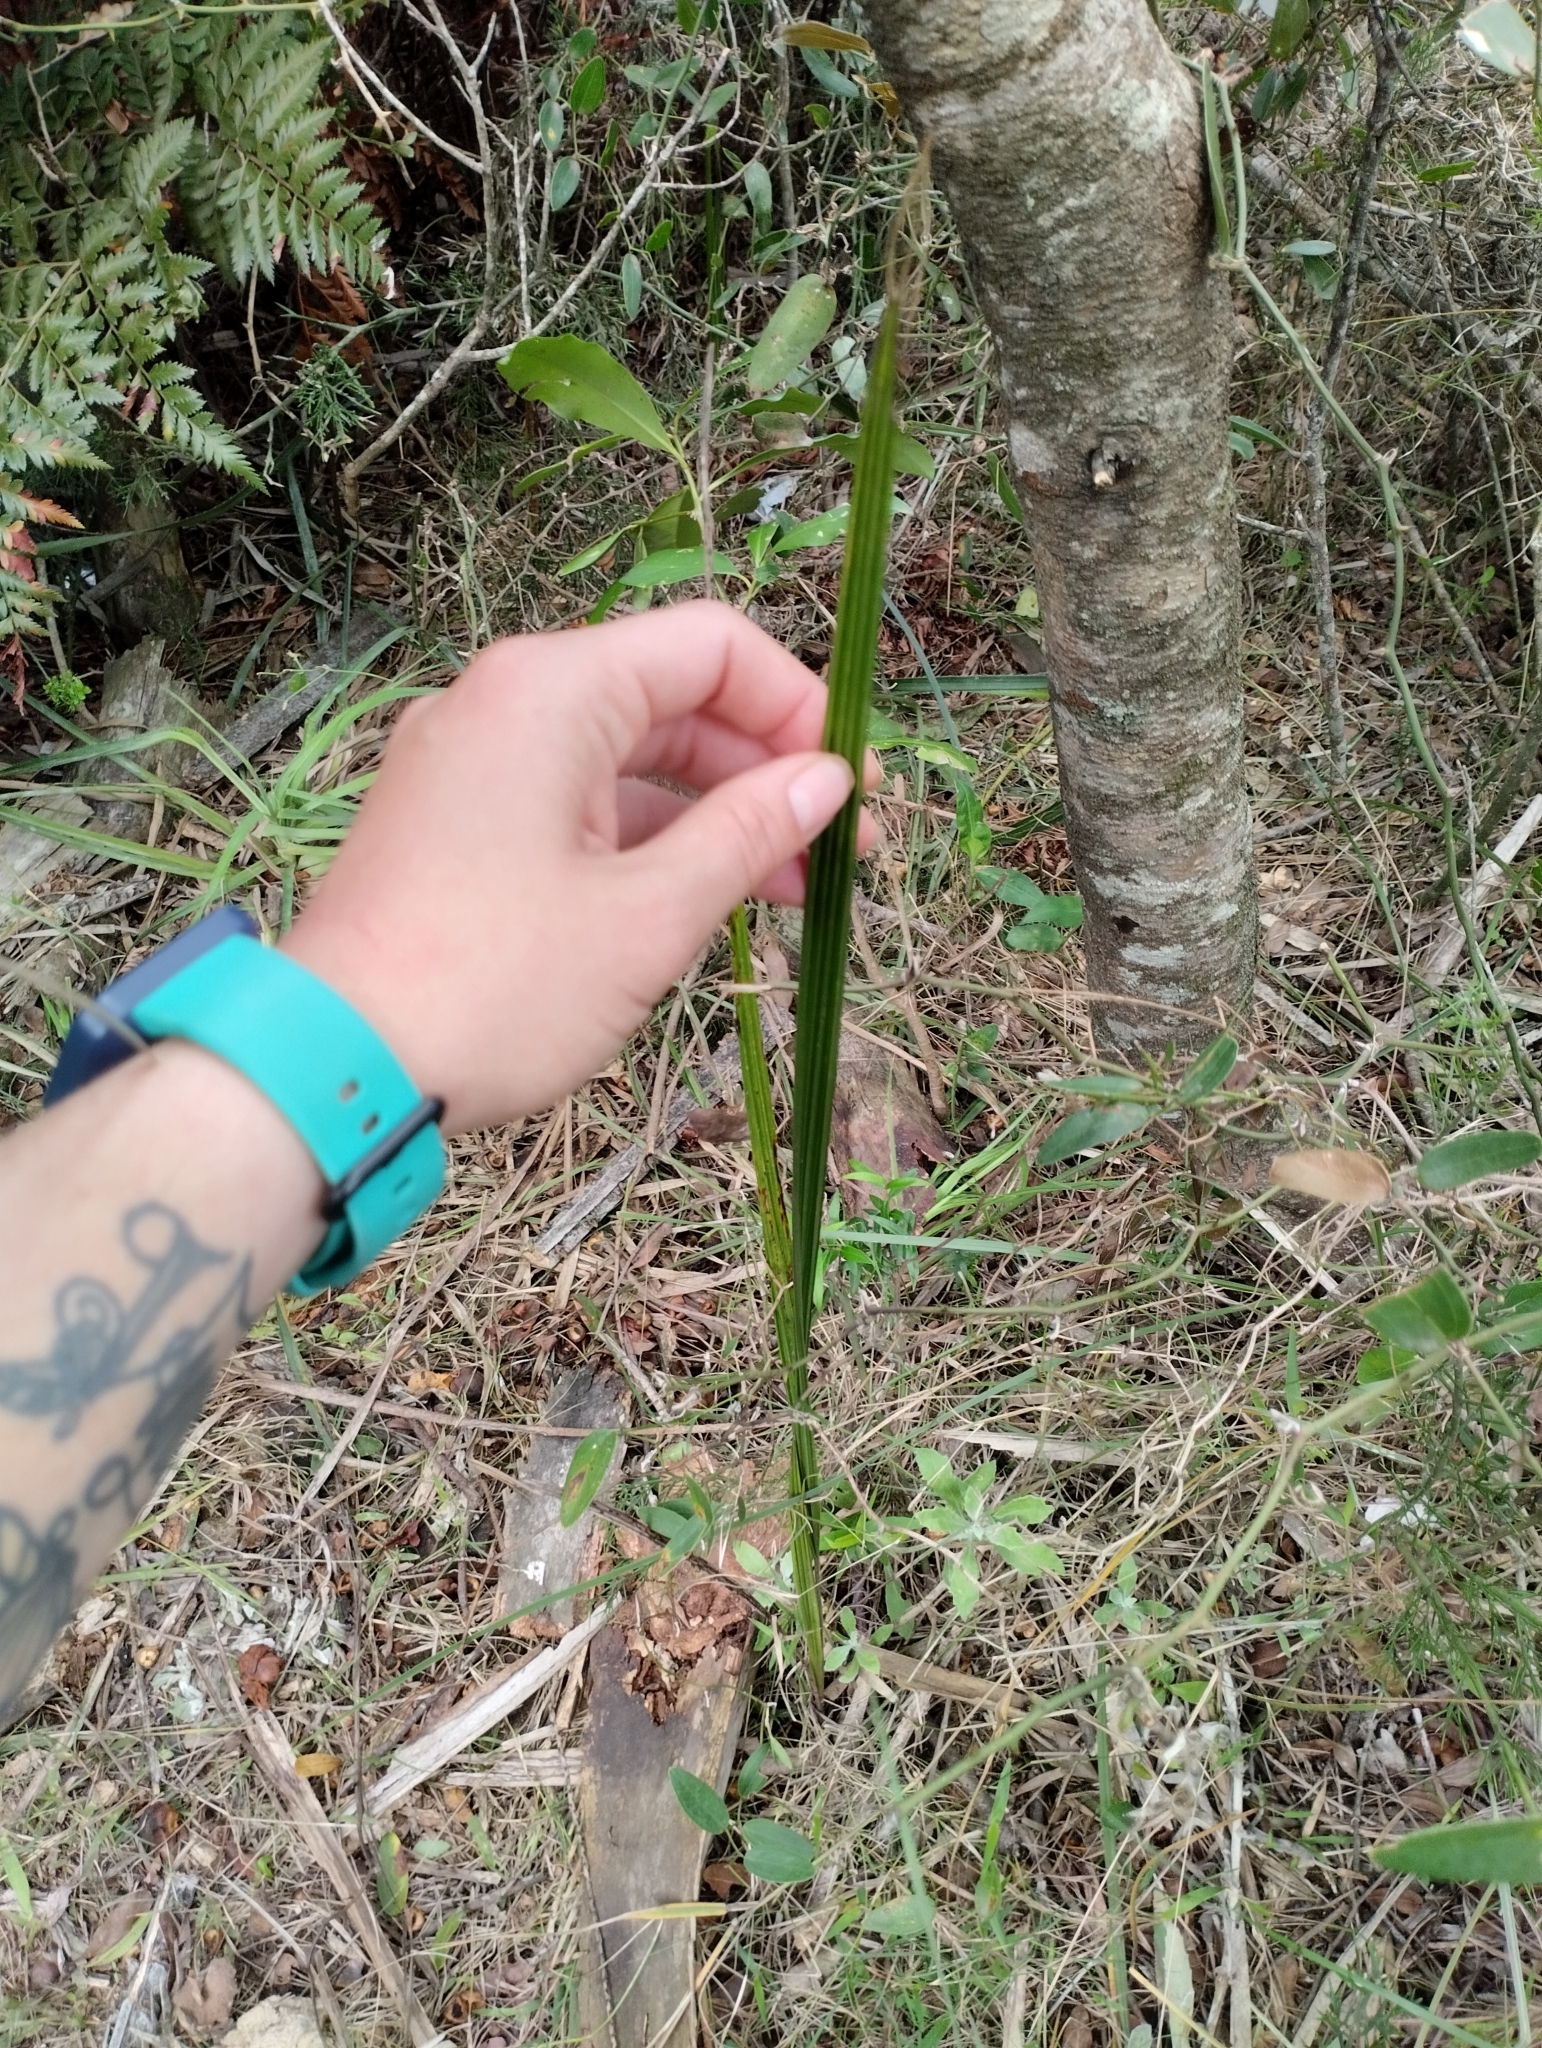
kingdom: Plantae
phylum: Tracheophyta
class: Liliopsida
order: Arecales
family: Arecaceae
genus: Syagrus
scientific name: Syagrus romanzoffiana
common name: Queen palm
